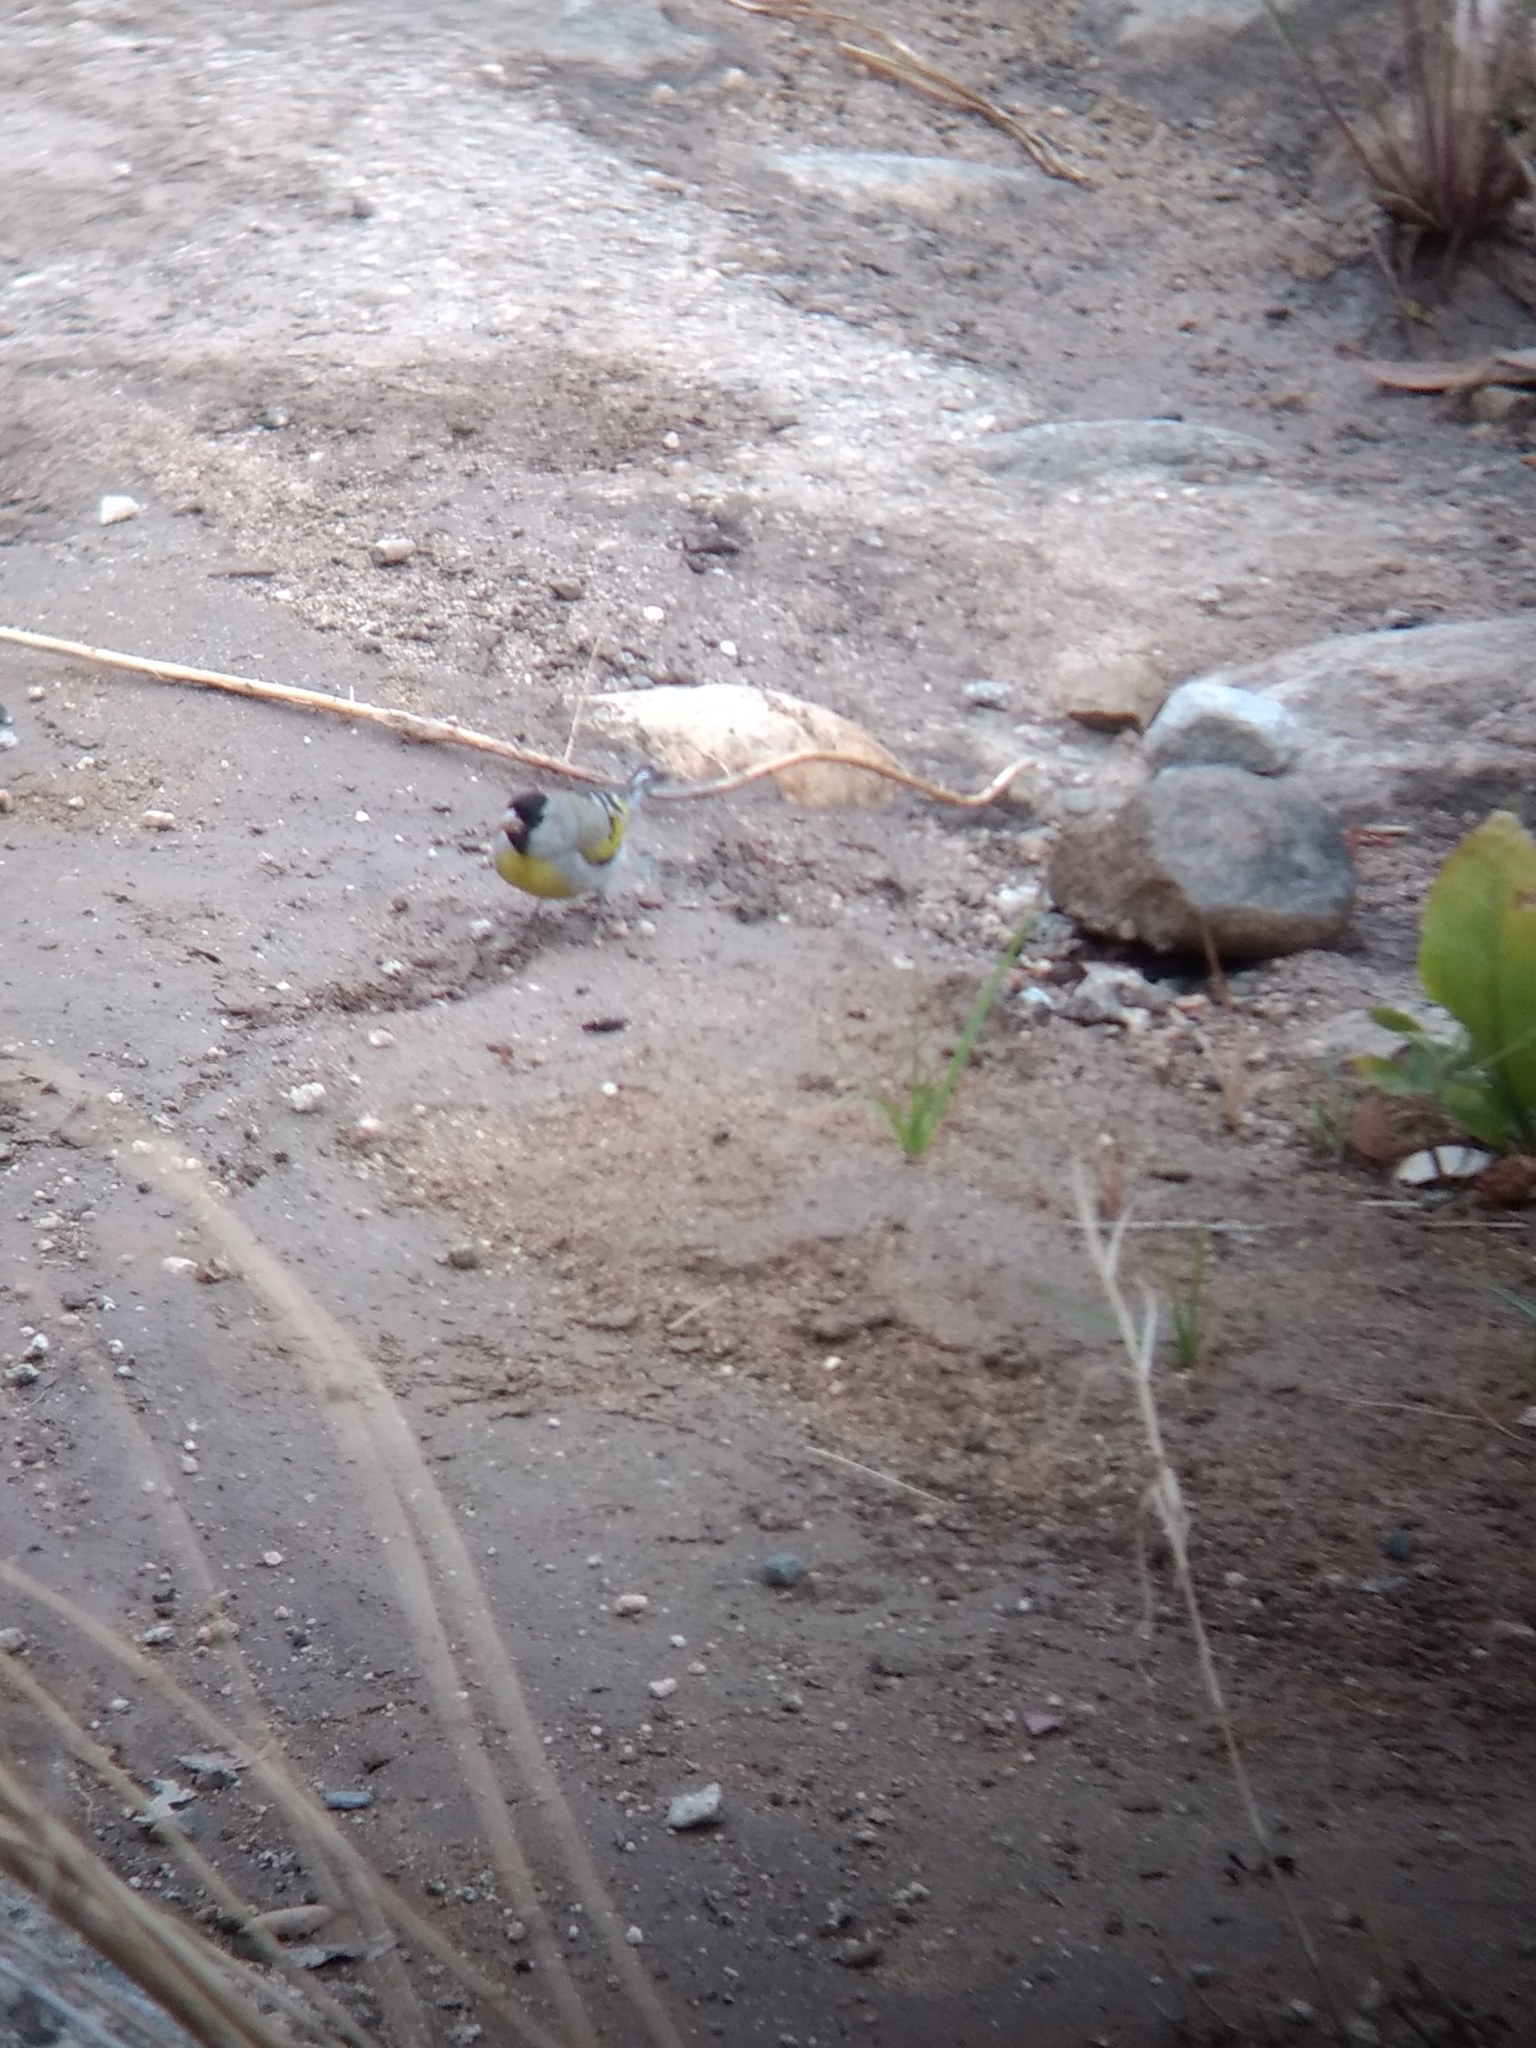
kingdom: Animalia
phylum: Chordata
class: Aves
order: Passeriformes
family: Fringillidae
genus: Spinus
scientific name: Spinus lawrencei
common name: Lawrence's goldfinch
